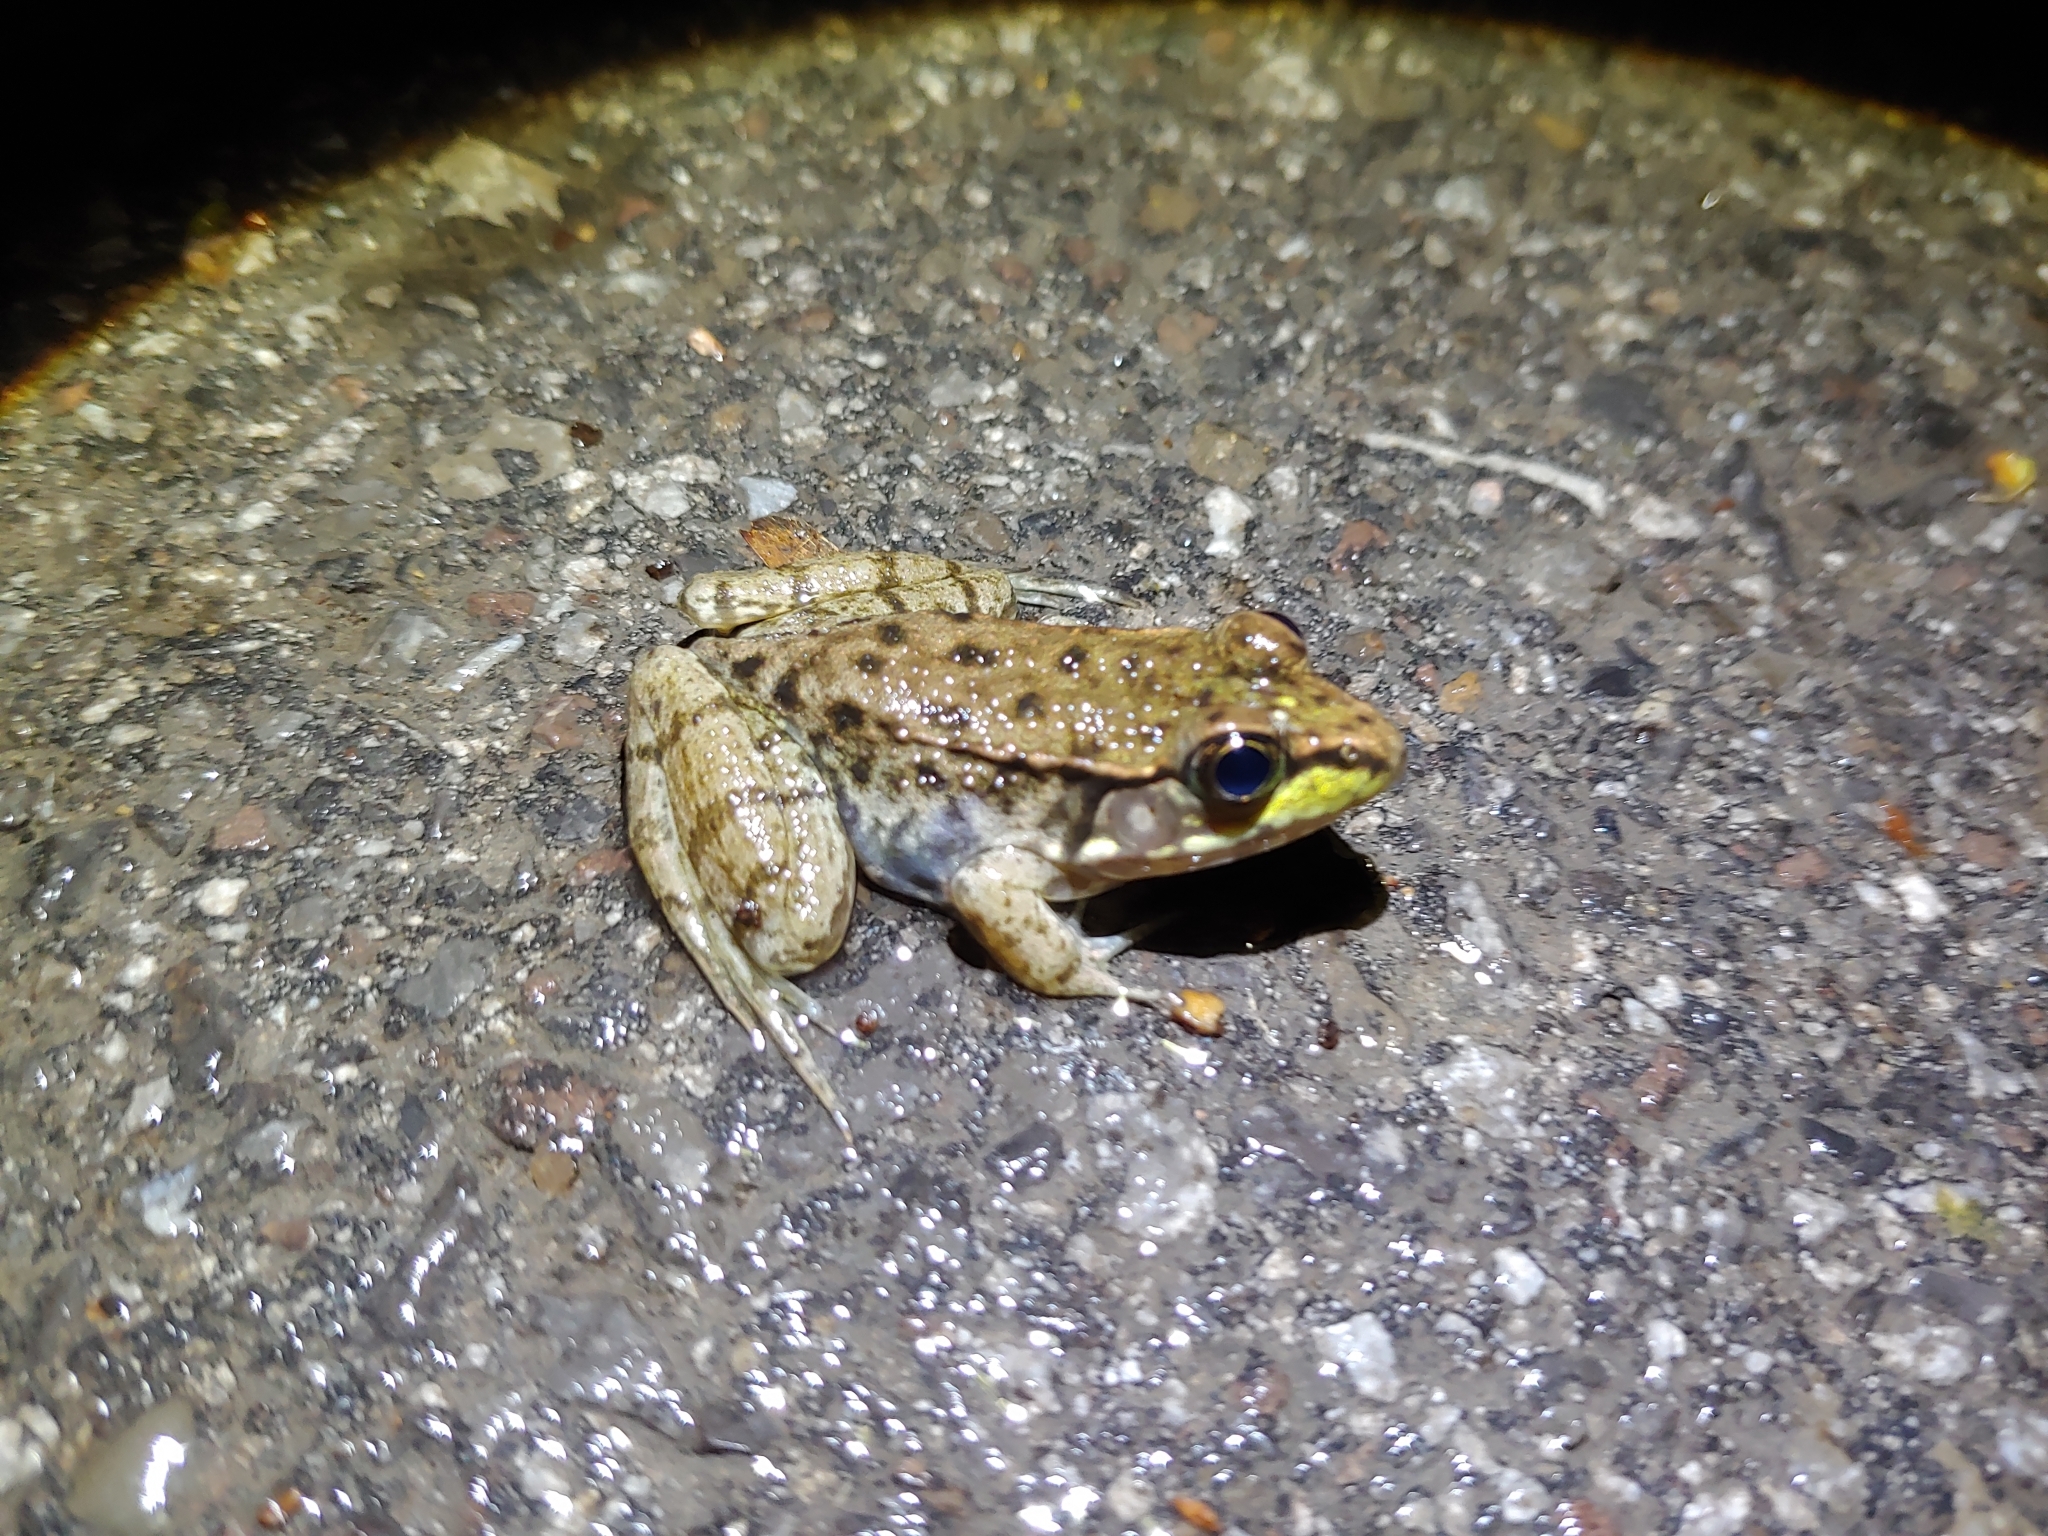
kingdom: Animalia
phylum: Chordata
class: Amphibia
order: Anura
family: Ranidae
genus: Lithobates
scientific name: Lithobates clamitans
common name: Green frog
